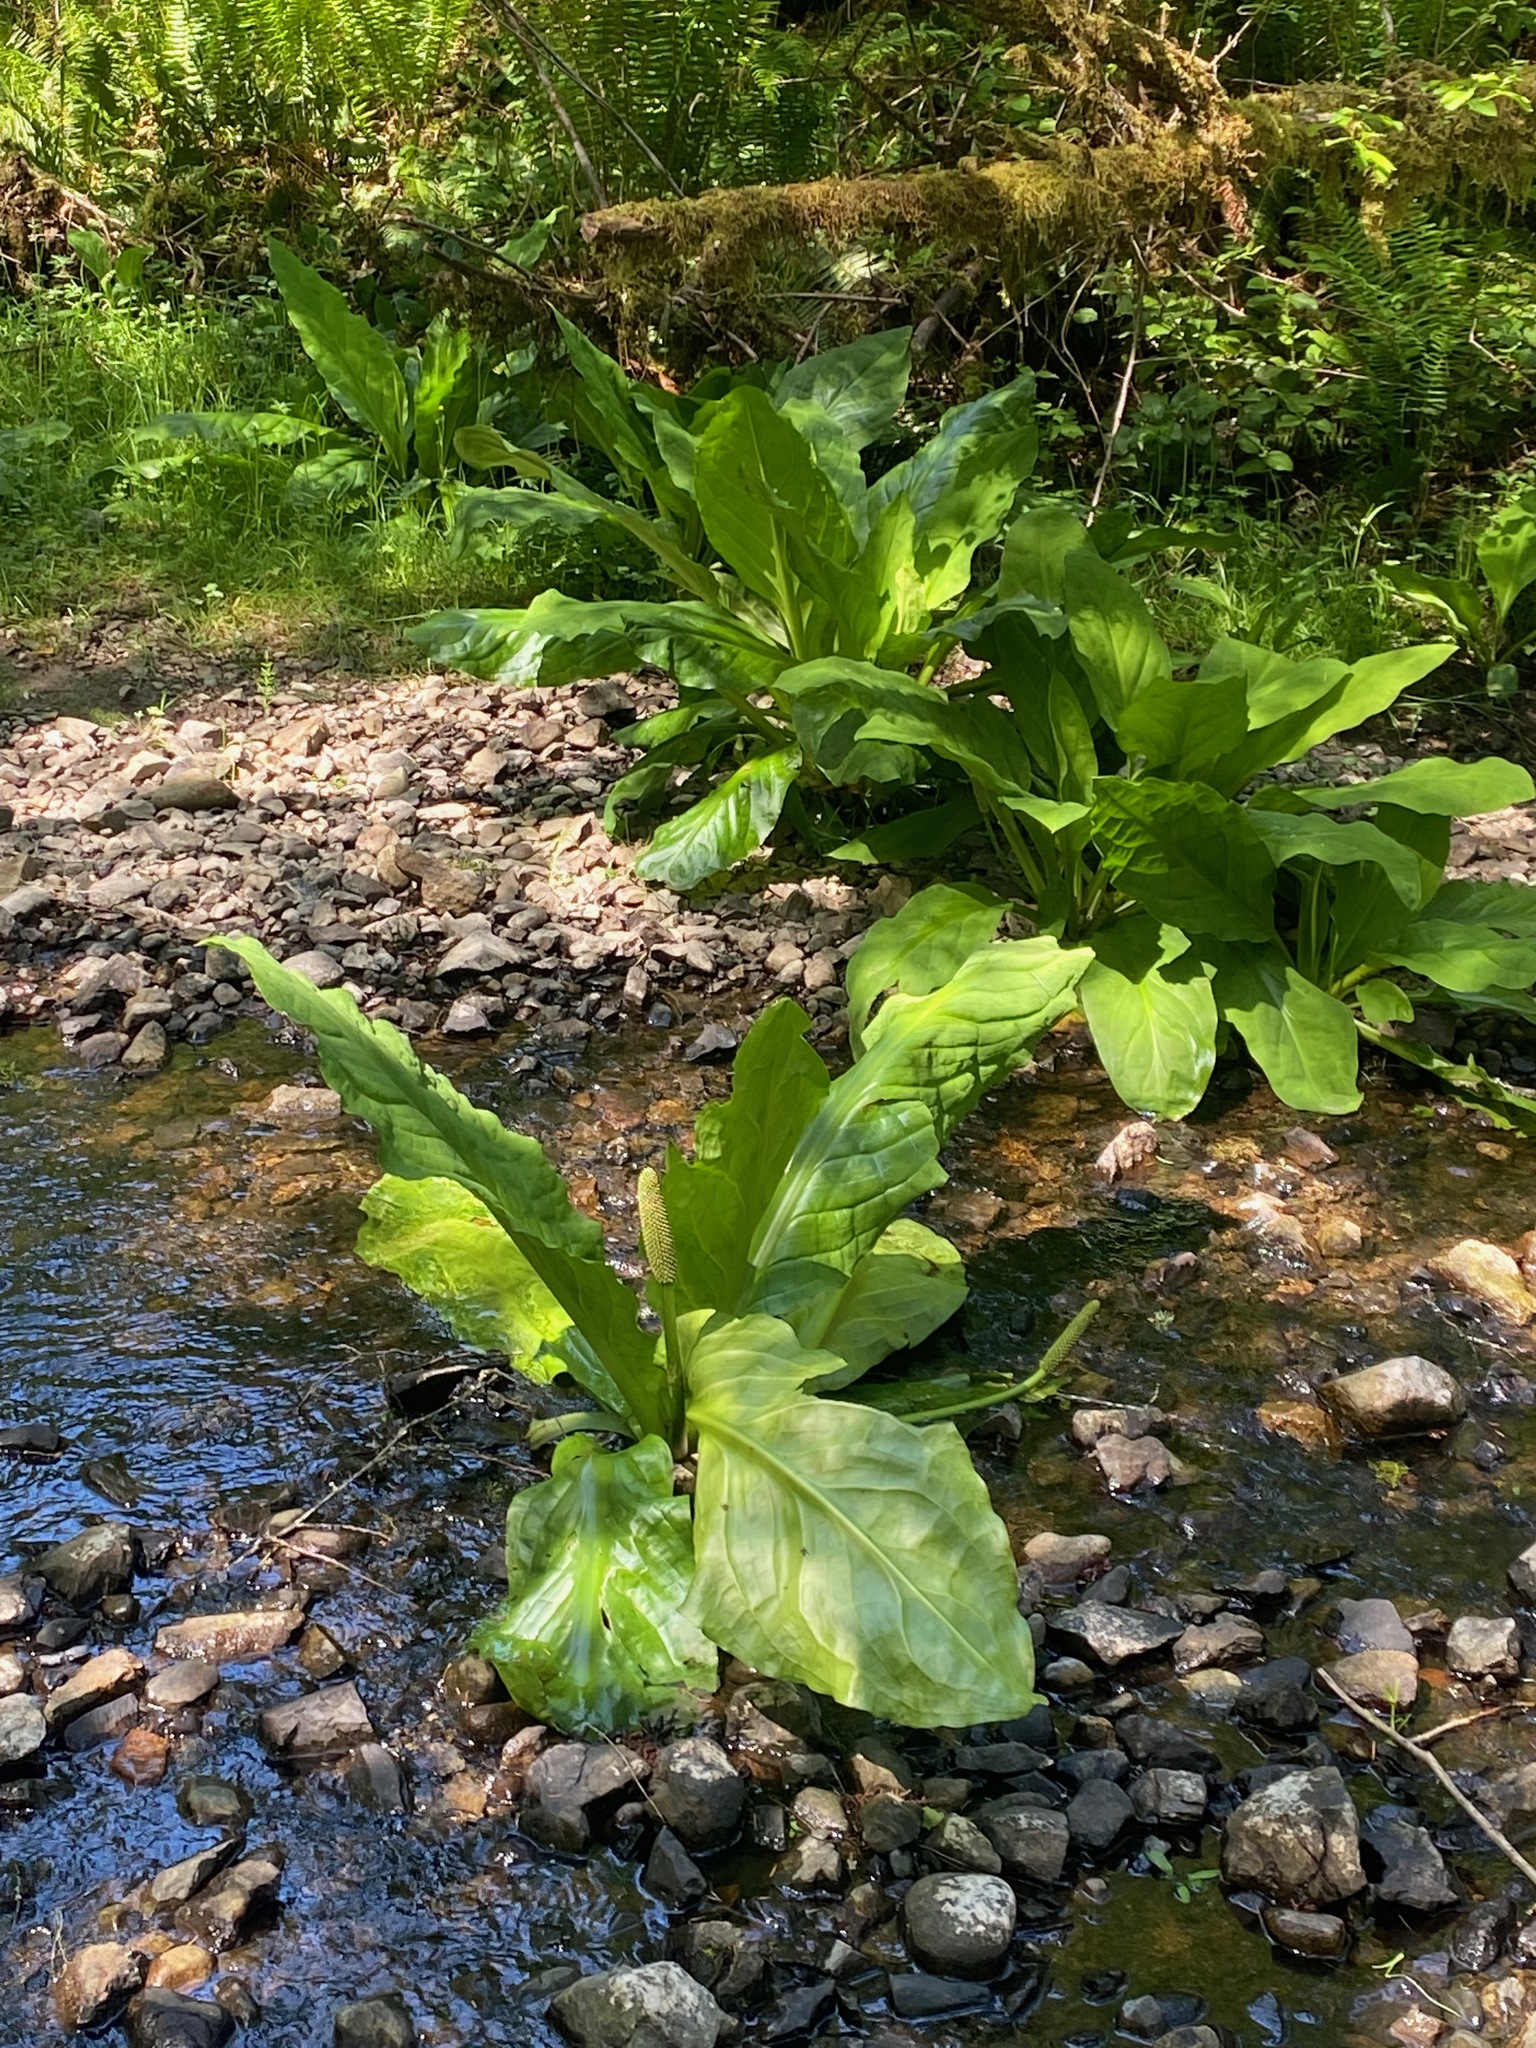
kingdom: Plantae
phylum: Tracheophyta
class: Liliopsida
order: Alismatales
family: Araceae
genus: Lysichiton
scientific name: Lysichiton americanus
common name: American skunk cabbage
